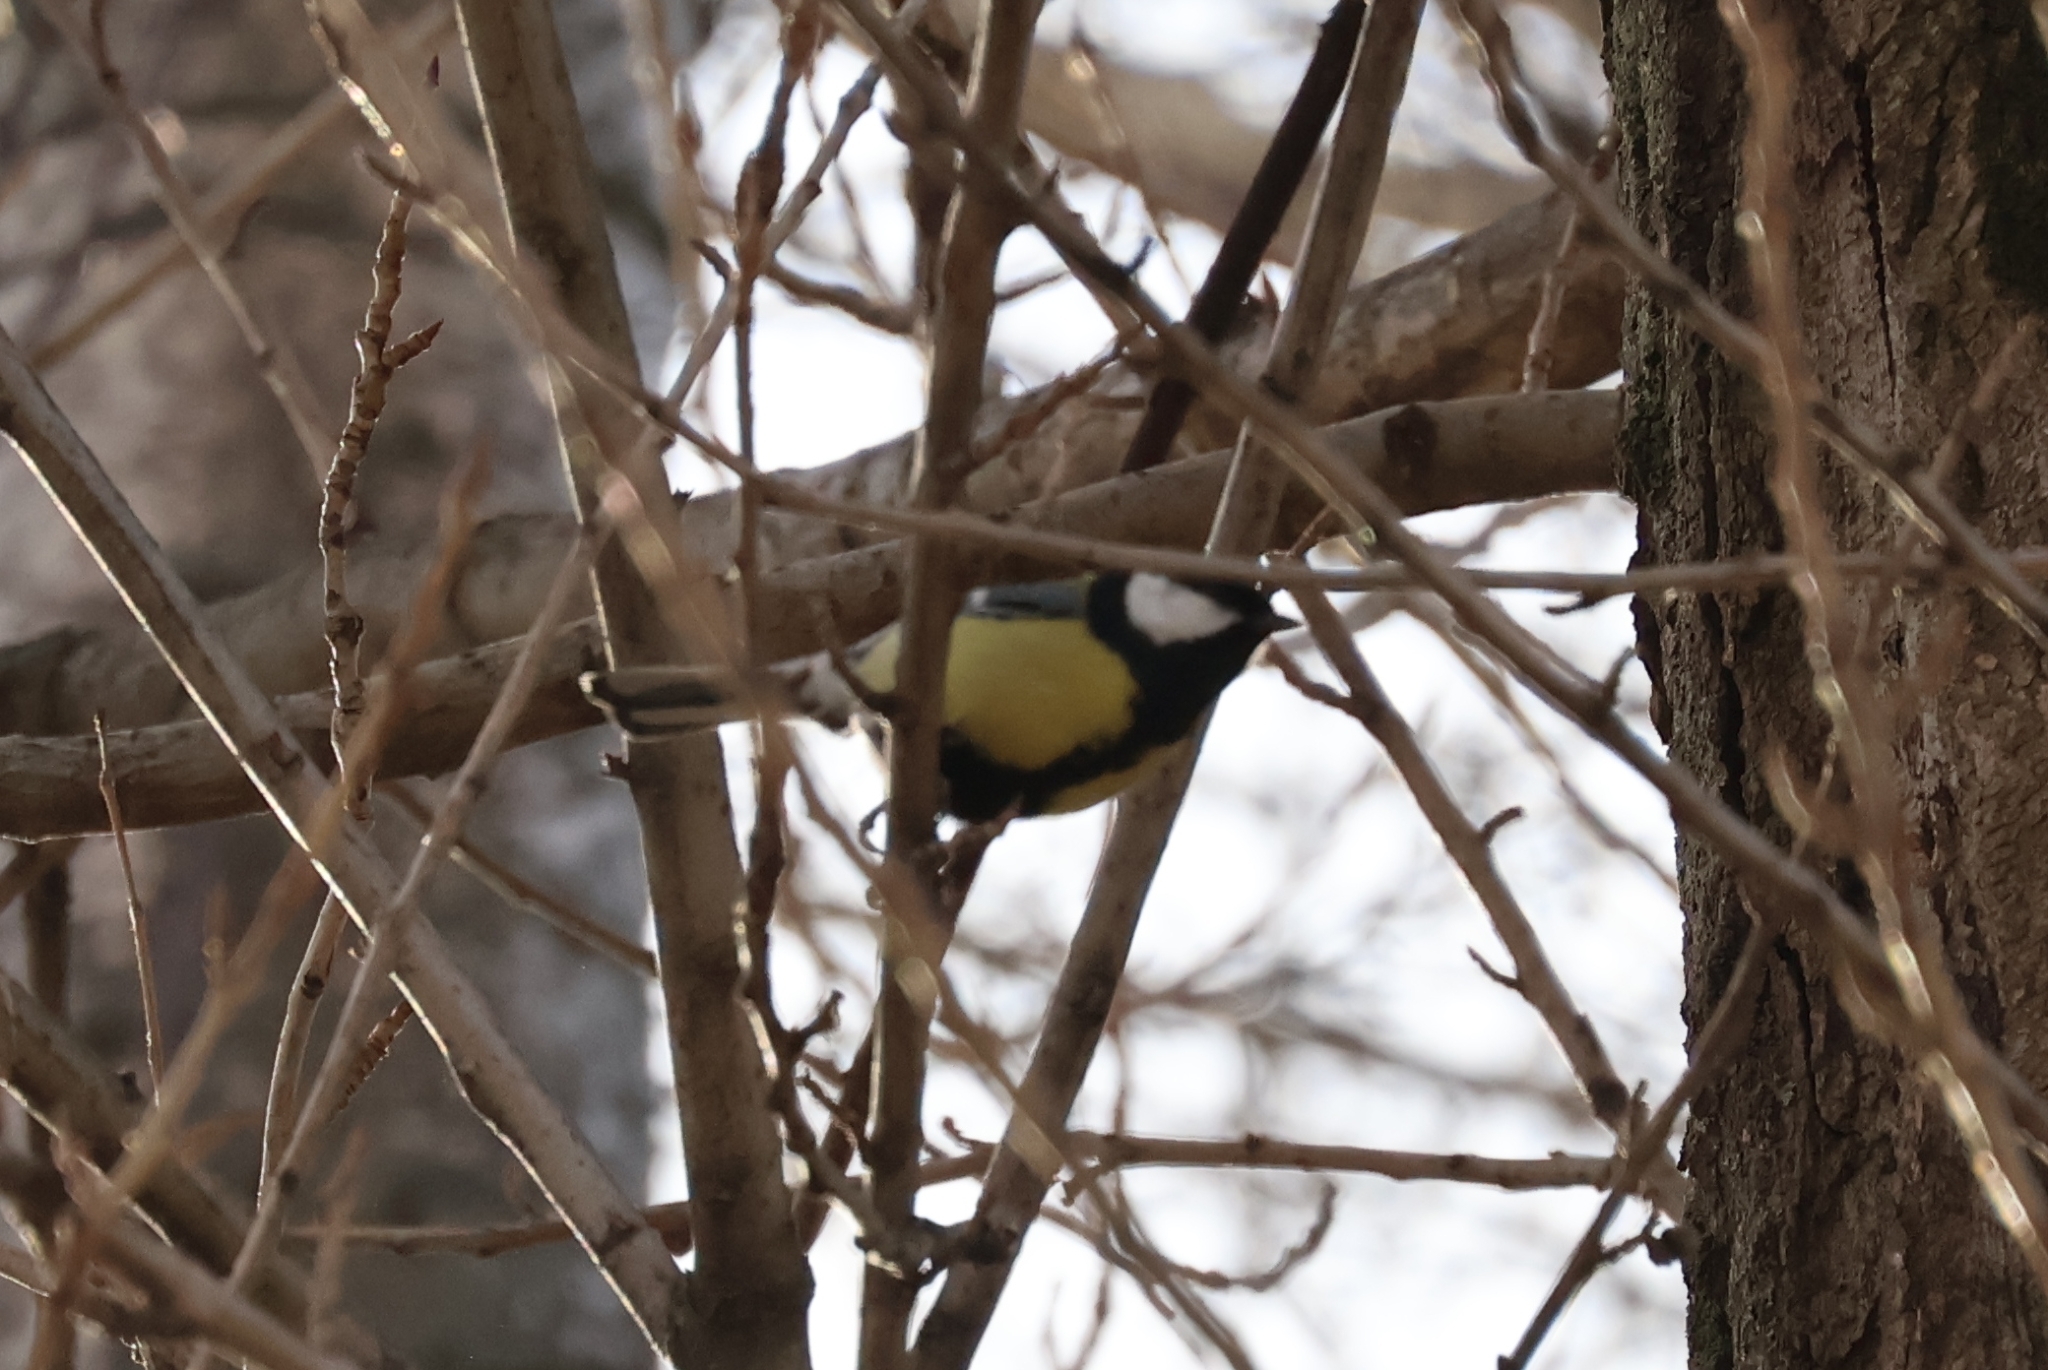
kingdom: Animalia
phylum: Chordata
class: Aves
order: Passeriformes
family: Paridae
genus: Parus
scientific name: Parus major
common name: Great tit
